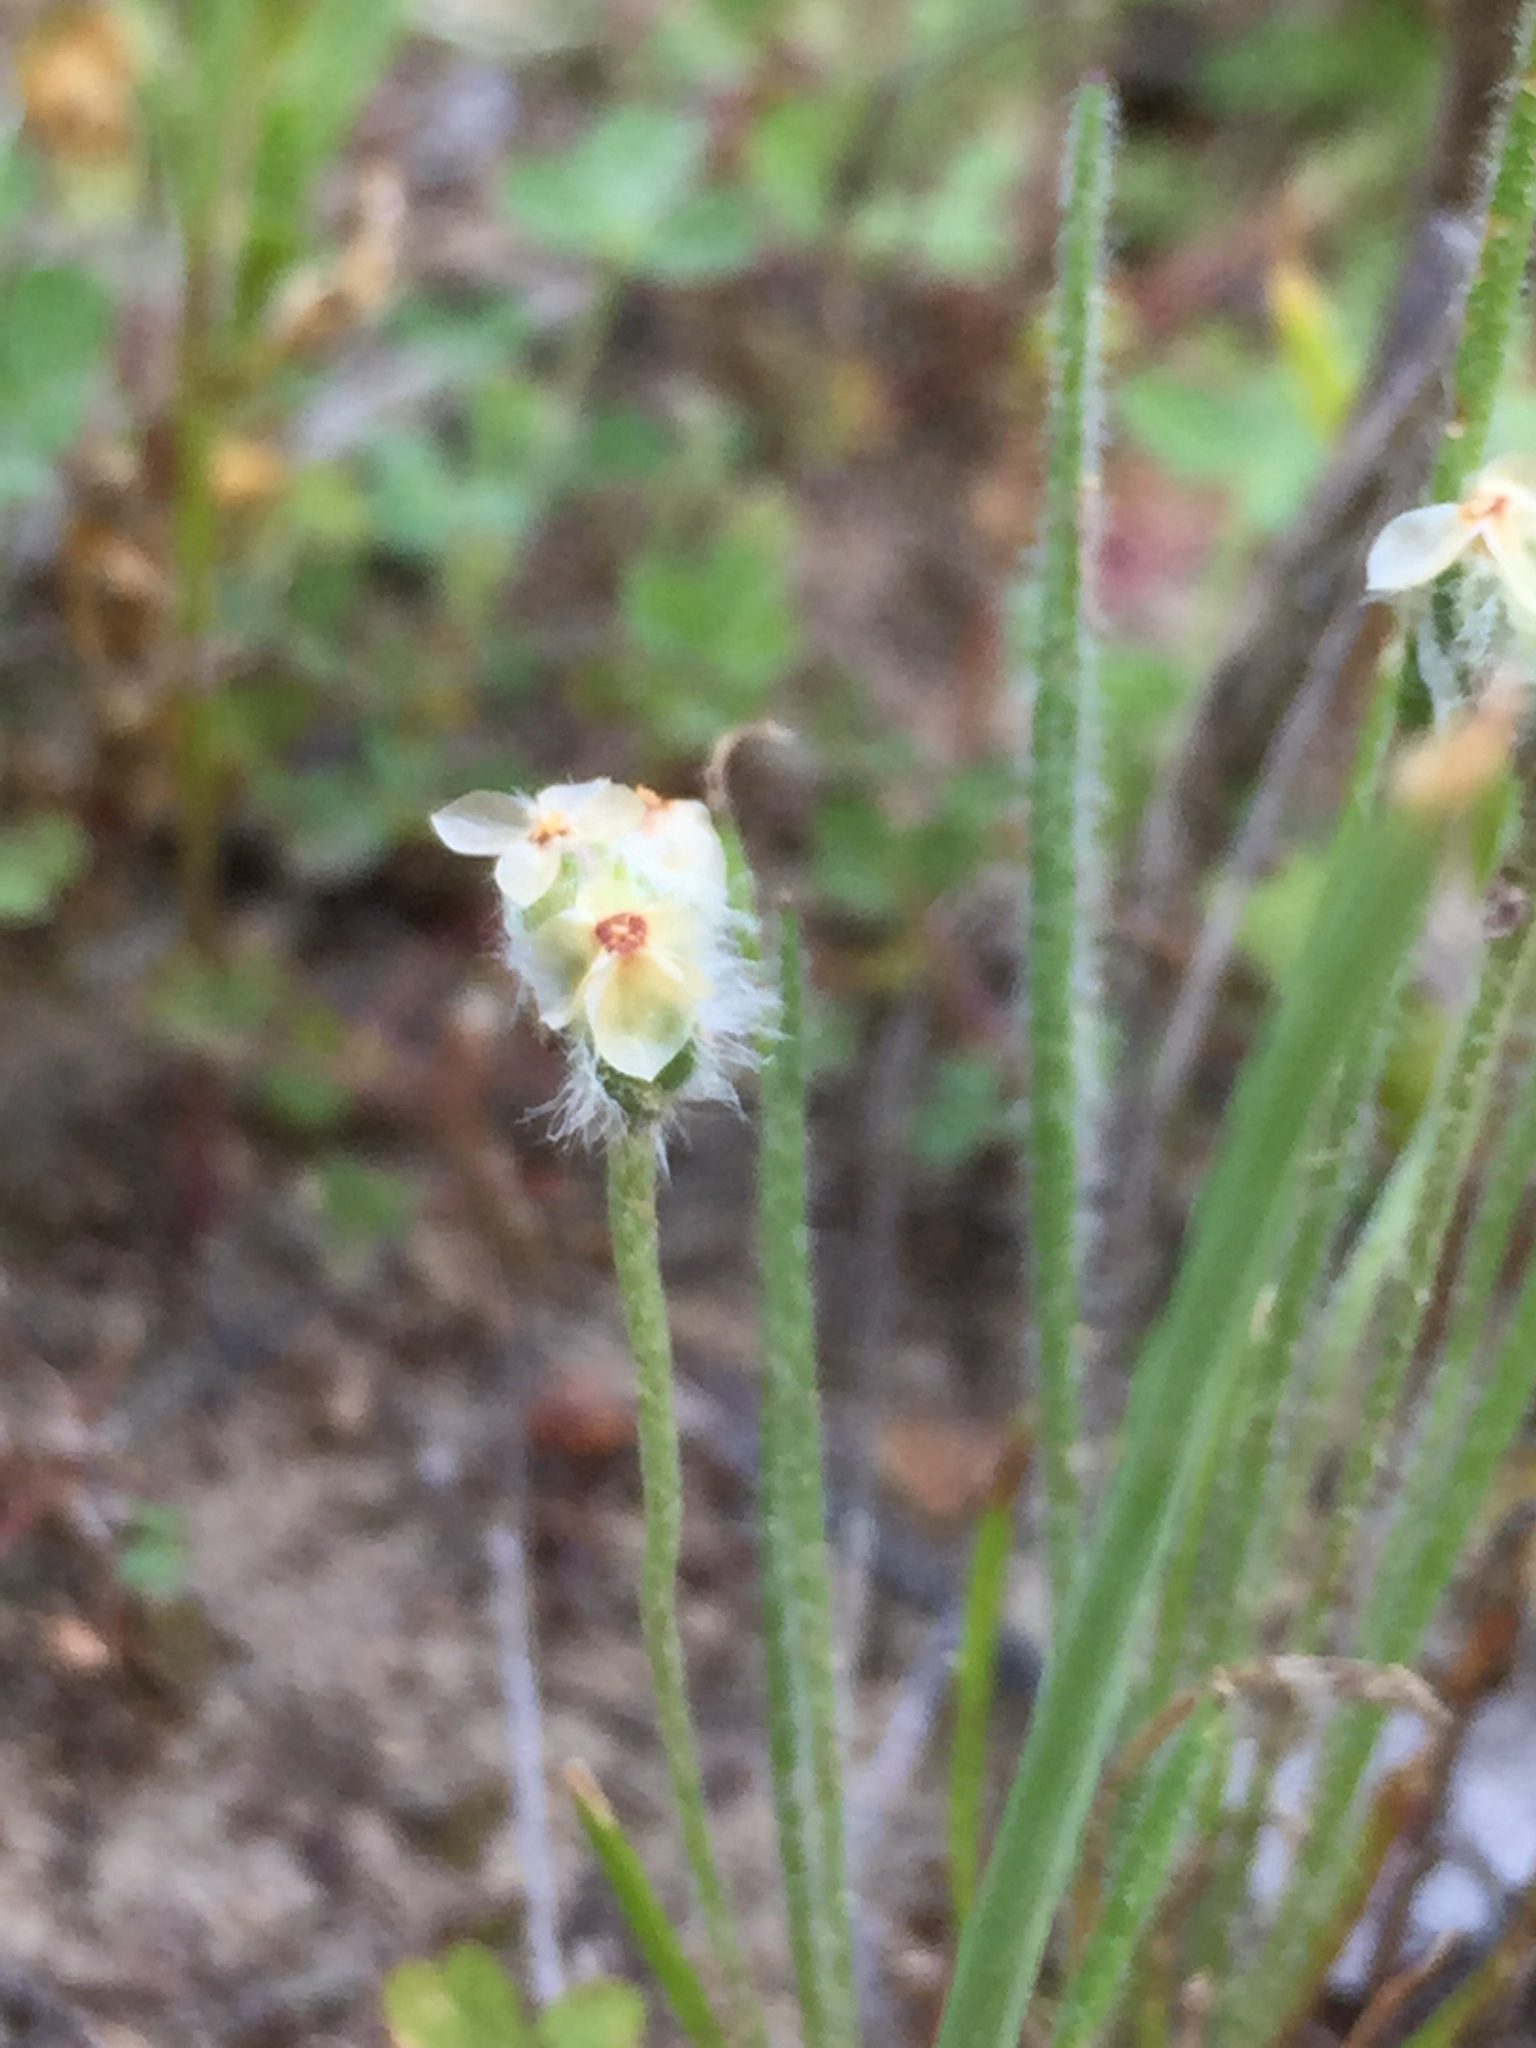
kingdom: Plantae
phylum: Tracheophyta
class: Magnoliopsida
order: Lamiales
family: Plantaginaceae
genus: Plantago
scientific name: Plantago erecta
